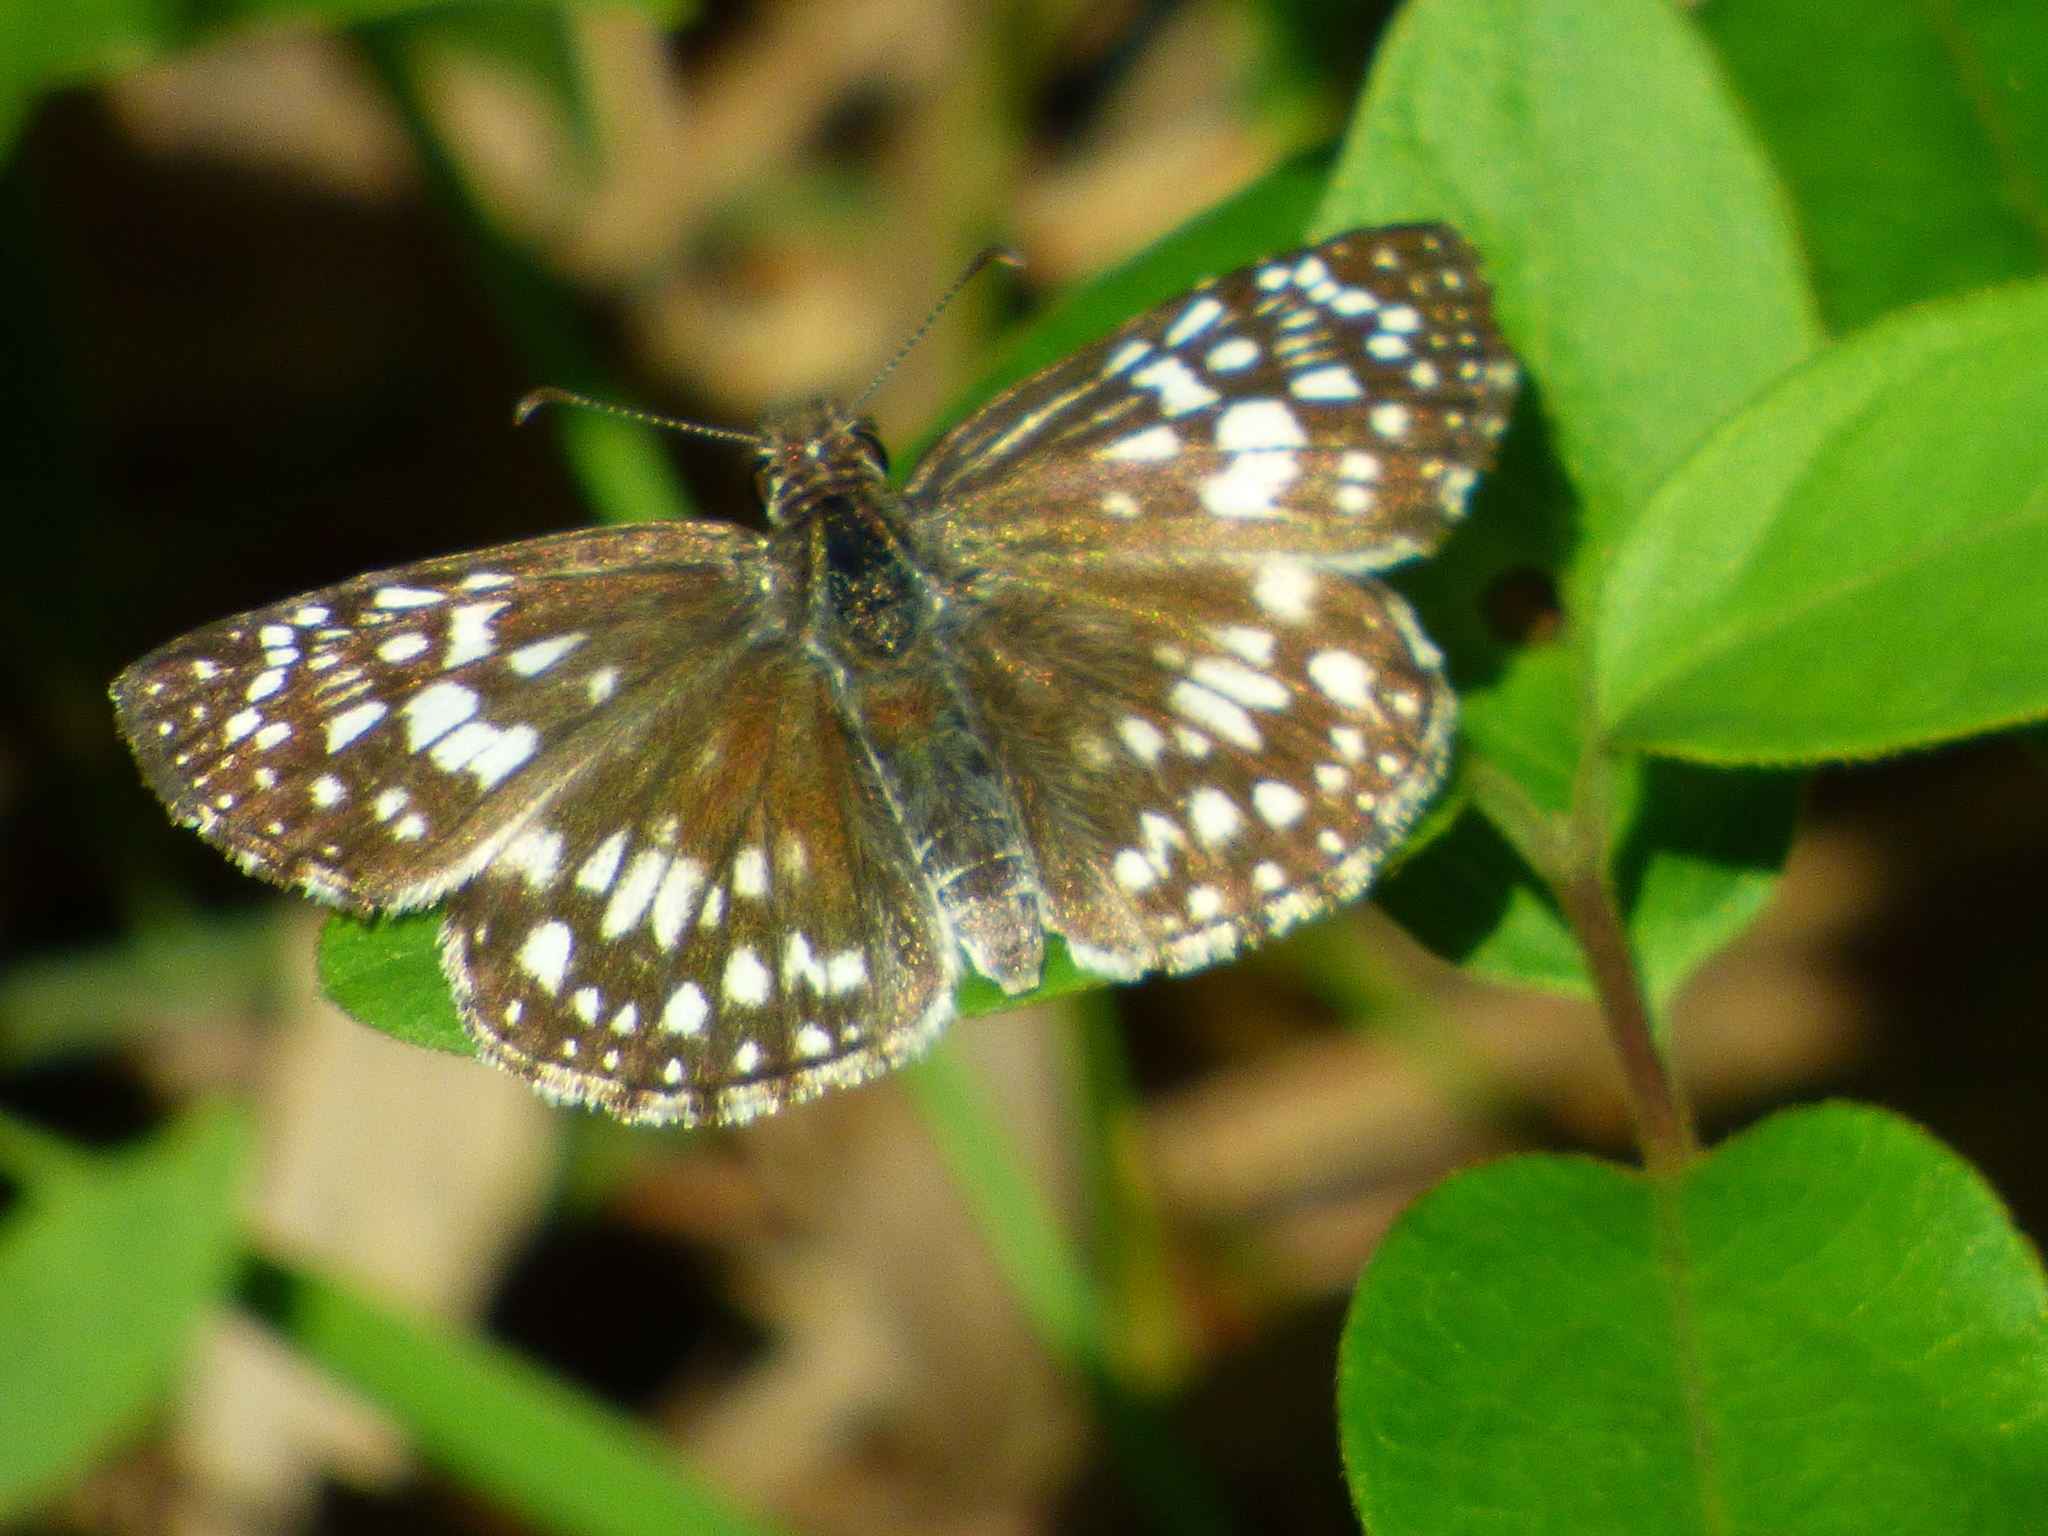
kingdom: Animalia
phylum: Arthropoda
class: Insecta
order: Lepidoptera
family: Hesperiidae
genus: Pyrgus
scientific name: Pyrgus oileus
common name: Tropical checkered-skipper
